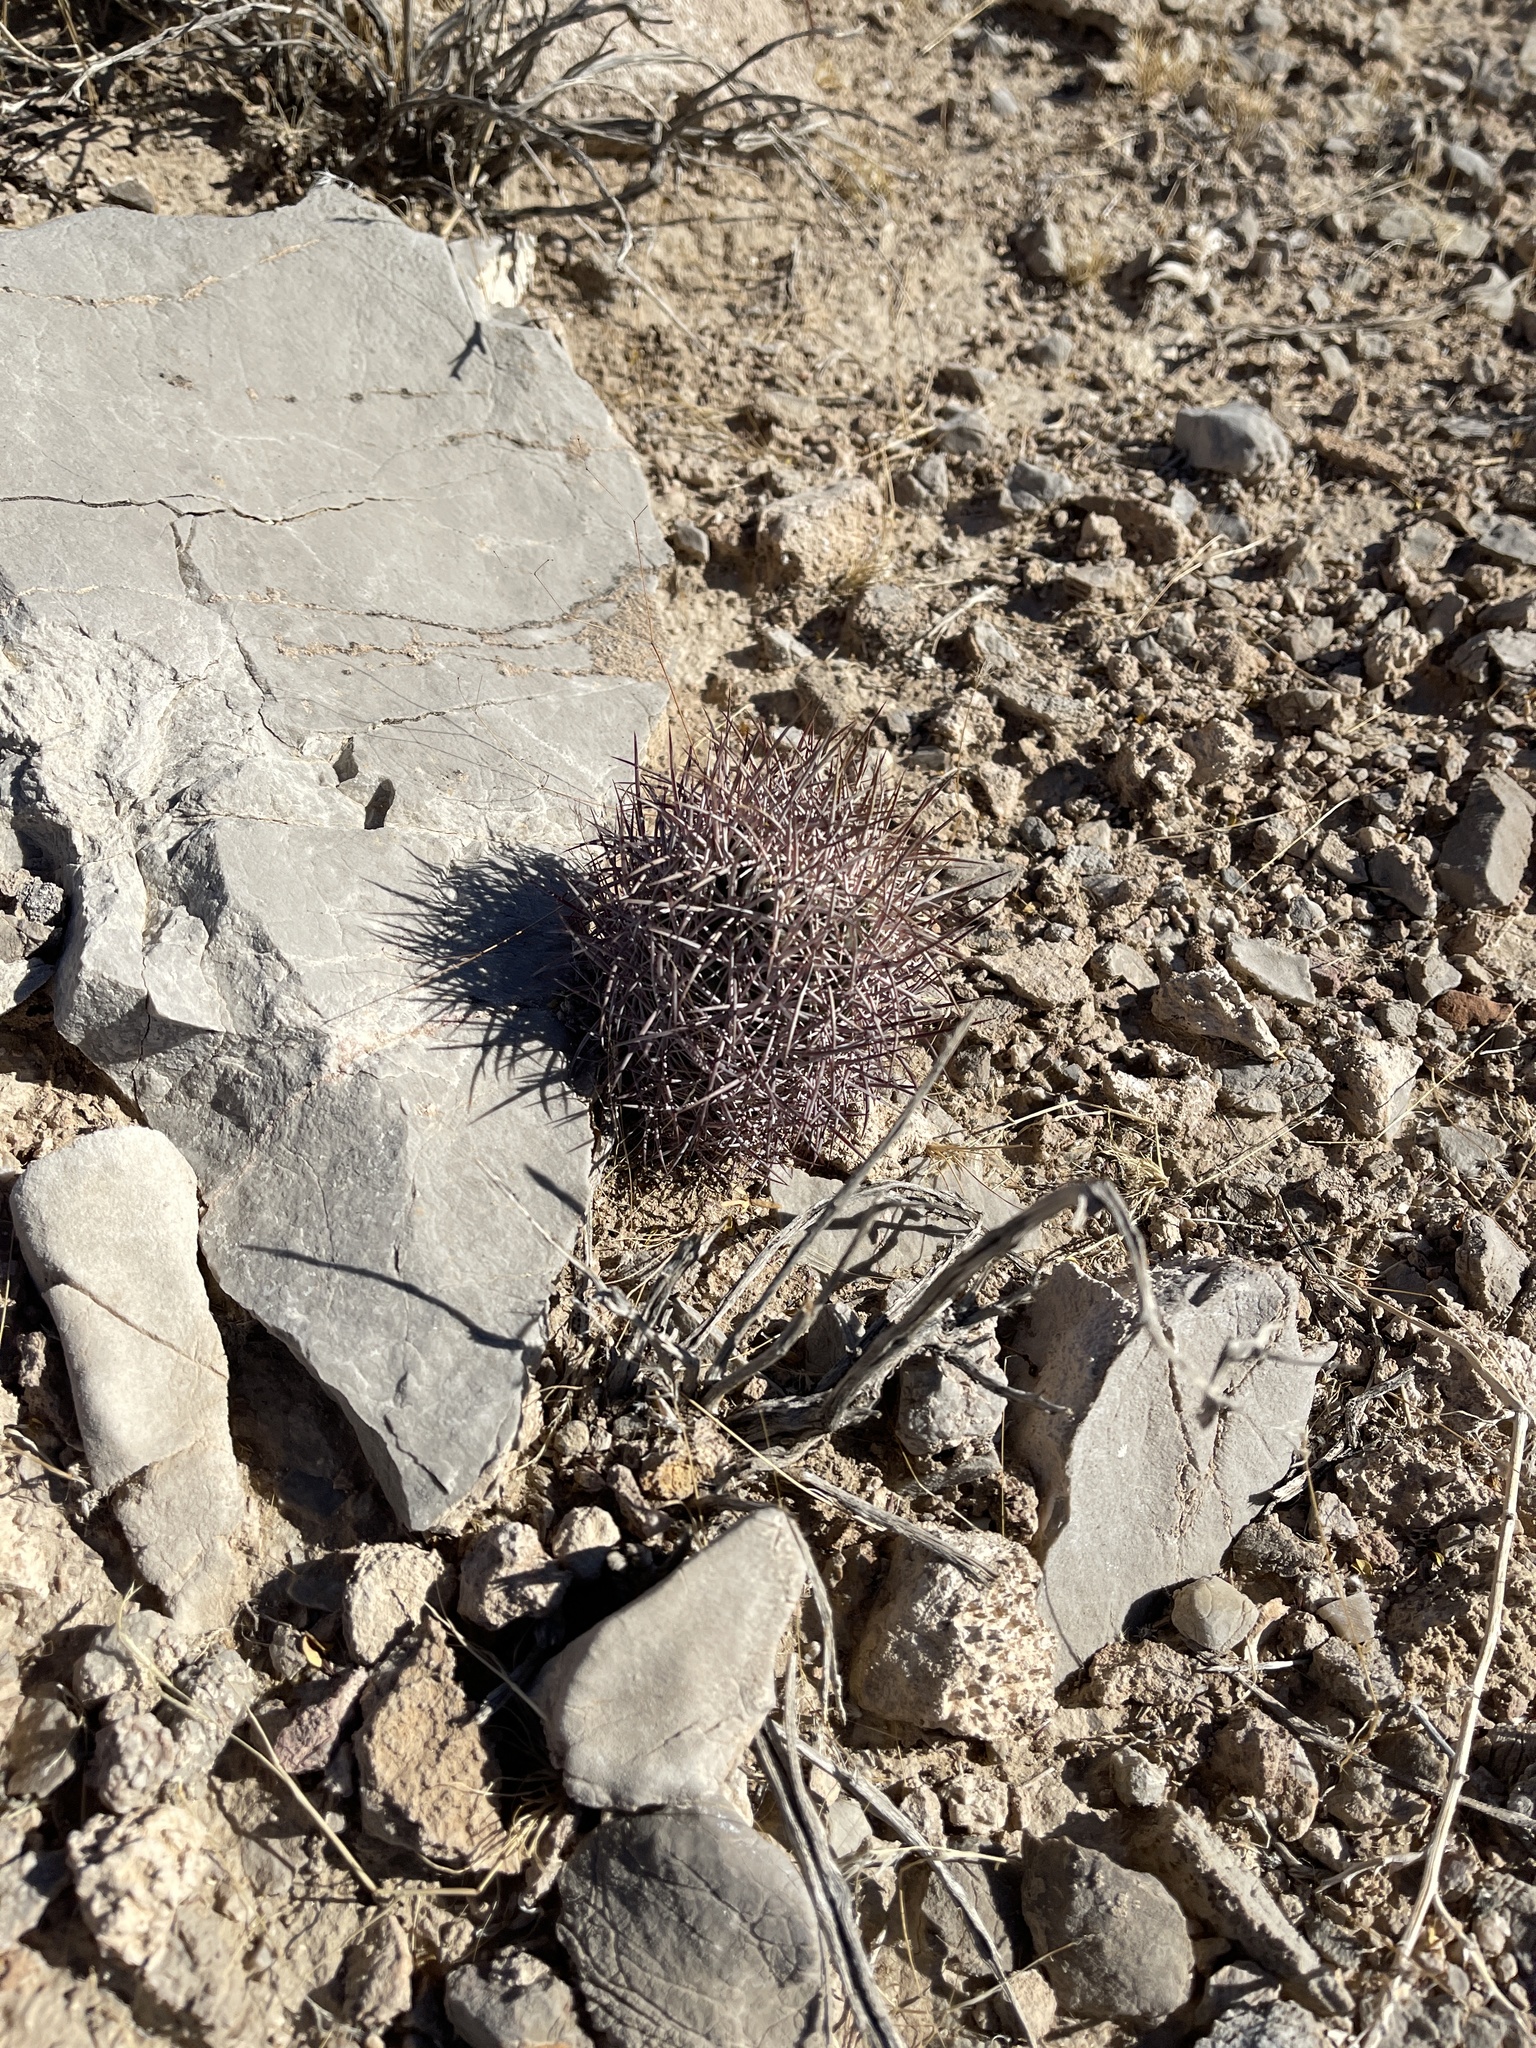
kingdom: Plantae
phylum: Tracheophyta
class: Magnoliopsida
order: Caryophyllales
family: Cactaceae
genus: Sclerocactus
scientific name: Sclerocactus johnsonii
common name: Eight-spine fishhook cactus
